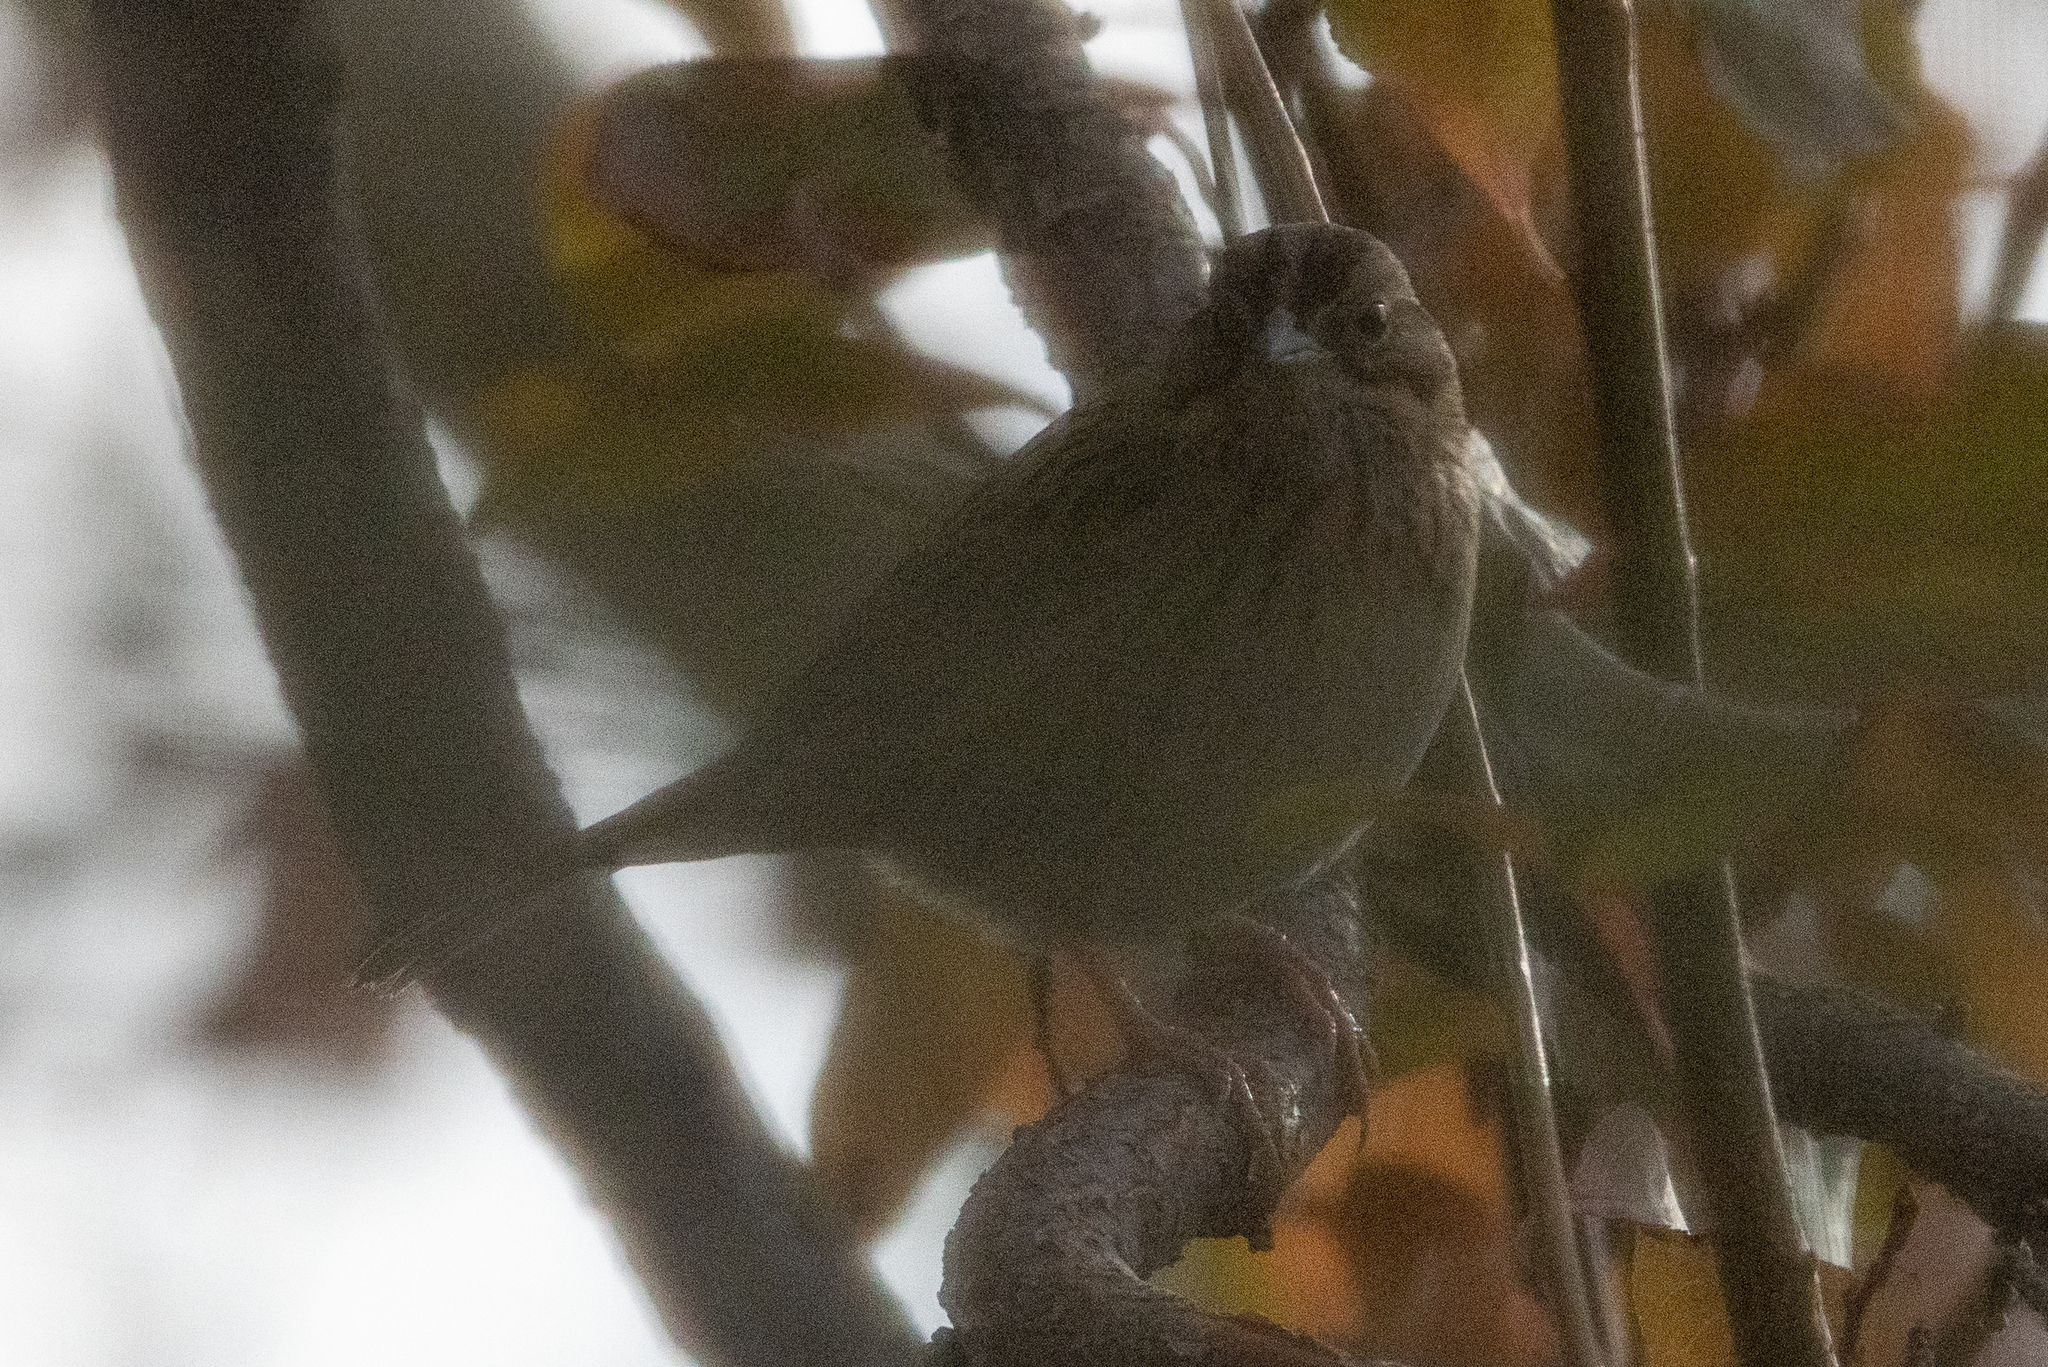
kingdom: Animalia
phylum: Chordata
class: Aves
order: Passeriformes
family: Passerellidae
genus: Melospiza
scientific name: Melospiza lincolnii
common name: Lincoln's sparrow
